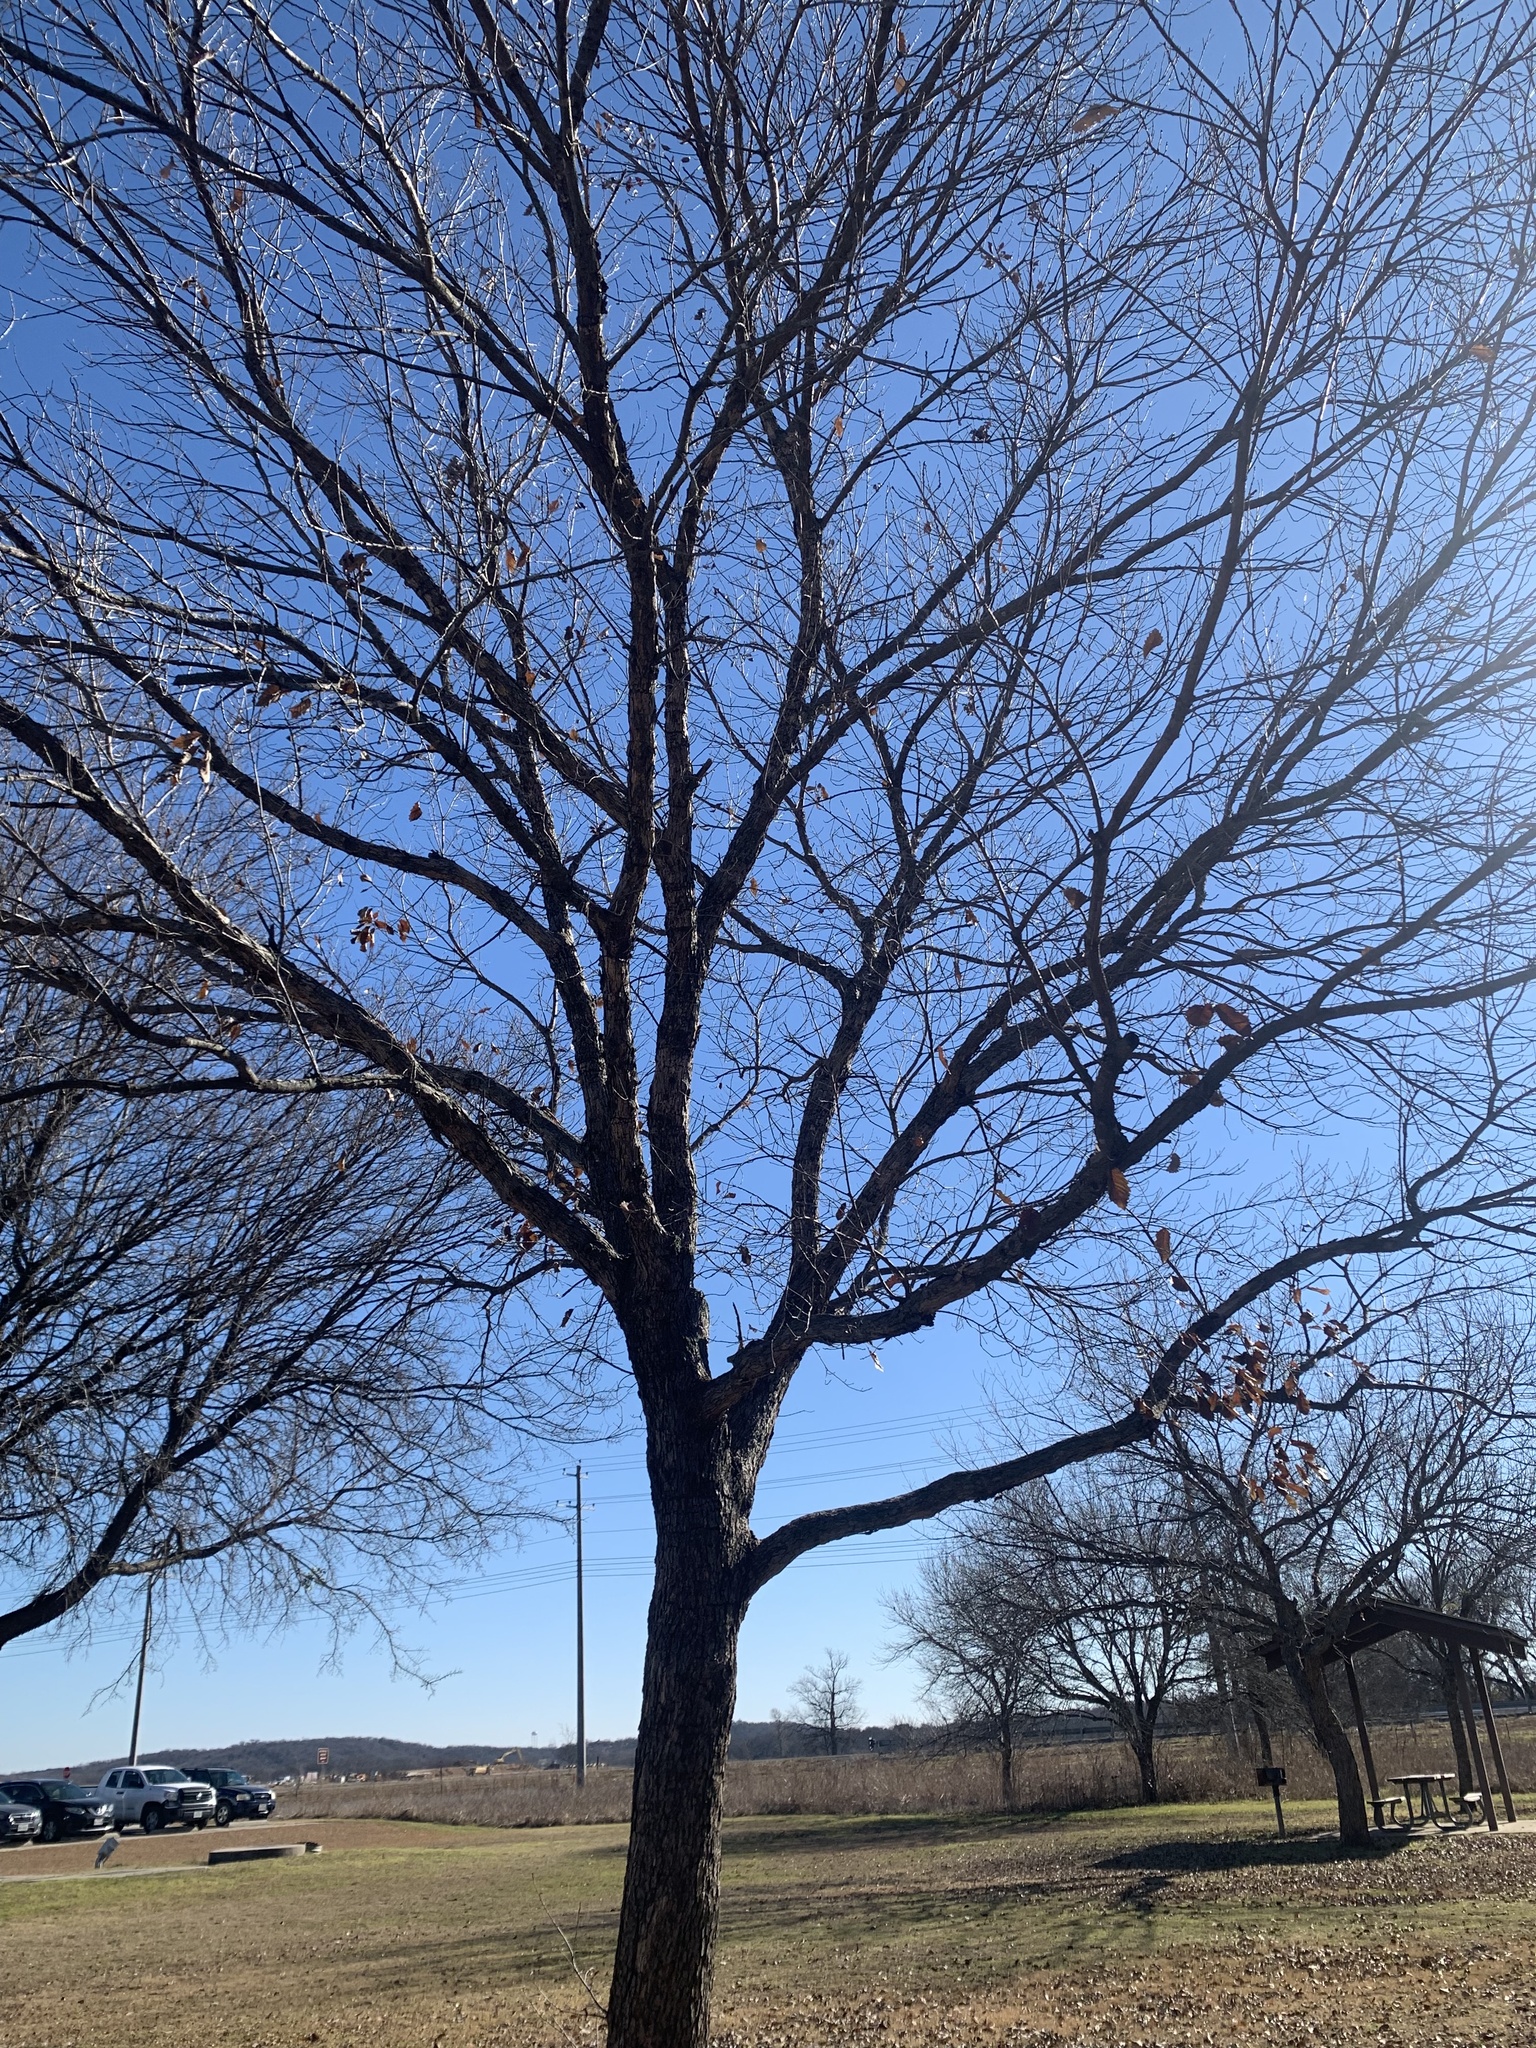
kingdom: Plantae
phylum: Tracheophyta
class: Magnoliopsida
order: Fagales
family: Fagaceae
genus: Quercus
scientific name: Quercus muehlenbergii
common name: Chinkapin oak
